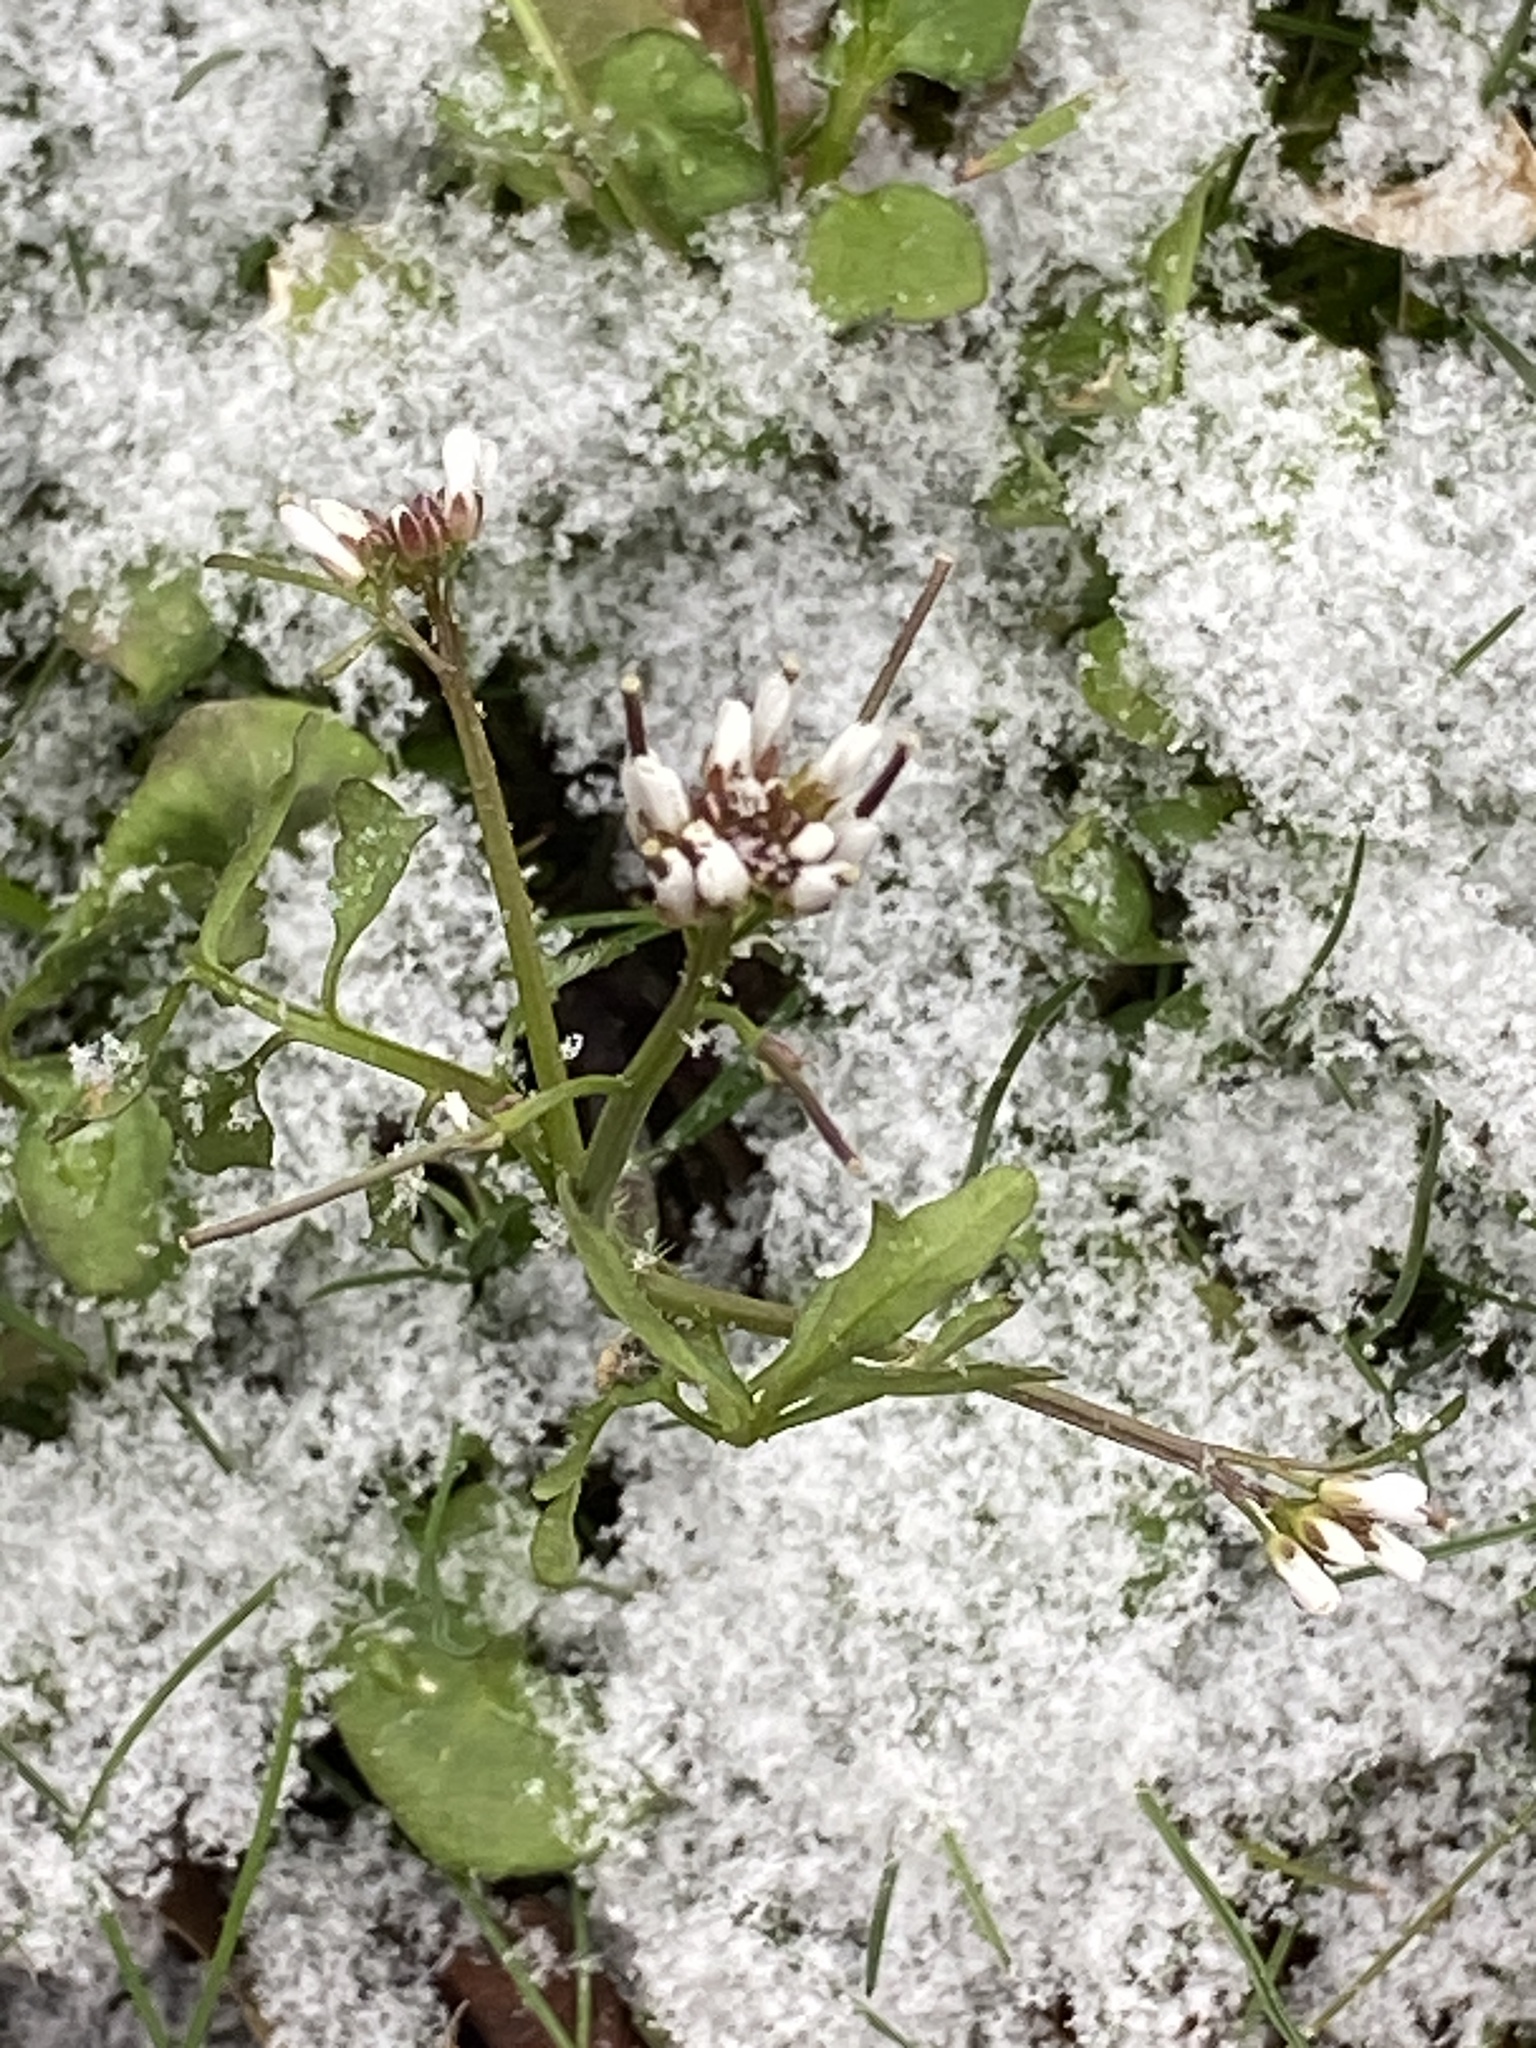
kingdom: Plantae
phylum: Tracheophyta
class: Magnoliopsida
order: Brassicales
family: Brassicaceae
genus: Cardamine
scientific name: Cardamine hirsuta
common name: Hairy bittercress
